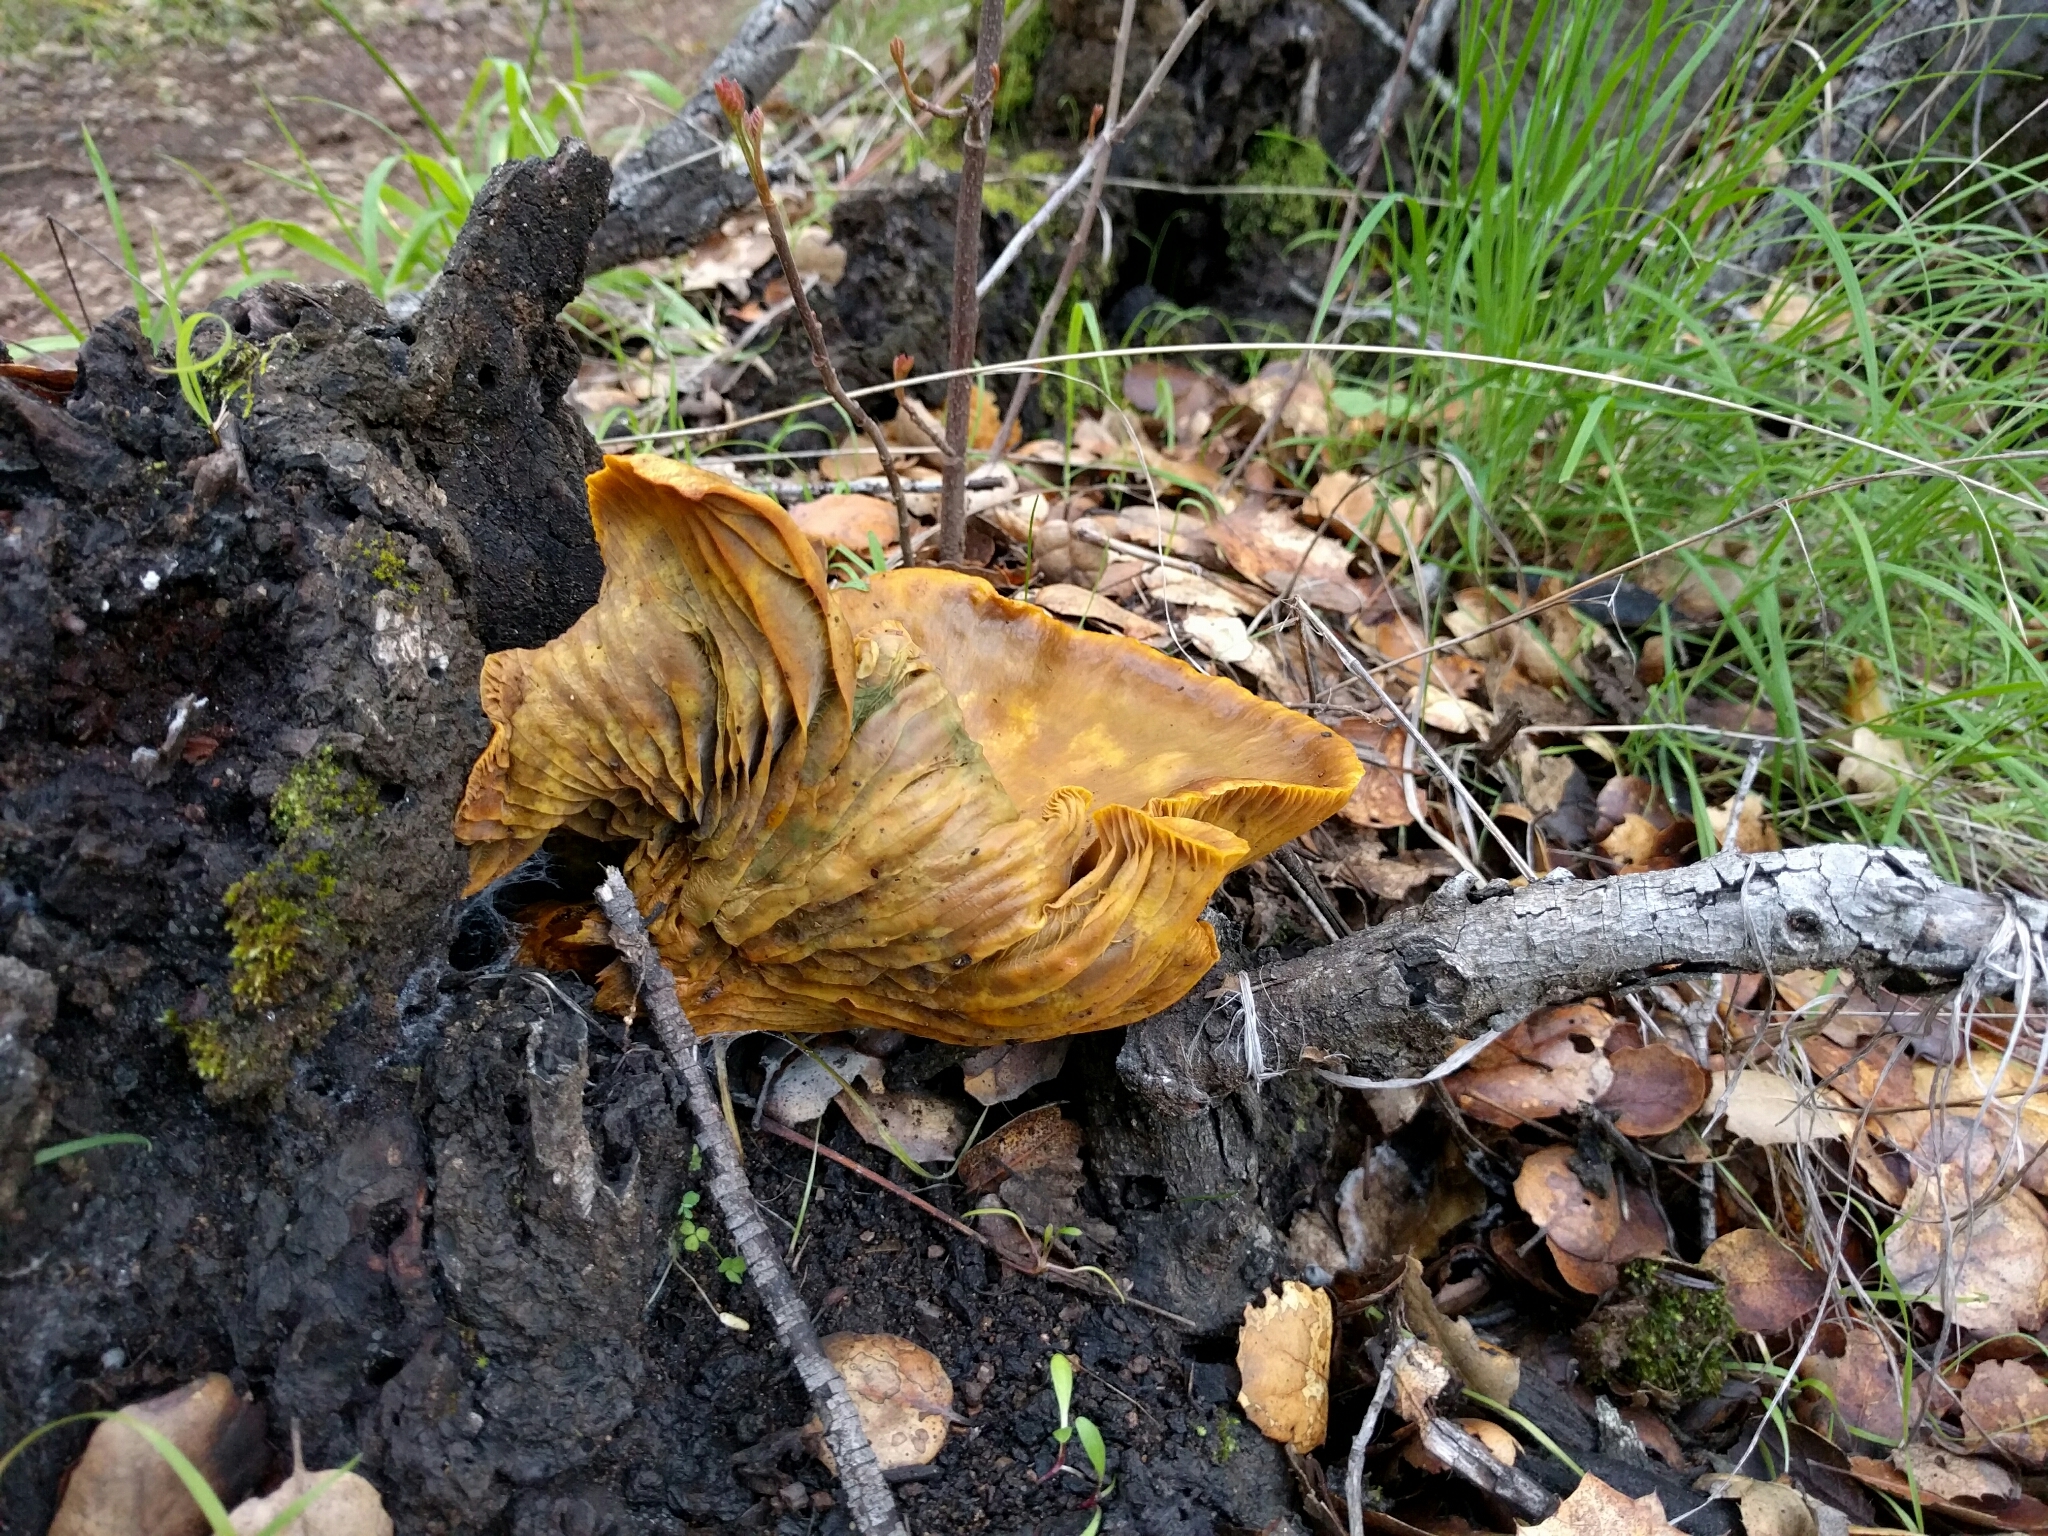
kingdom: Fungi
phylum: Basidiomycota
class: Agaricomycetes
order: Agaricales
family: Omphalotaceae
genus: Omphalotus
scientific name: Omphalotus olivascens
